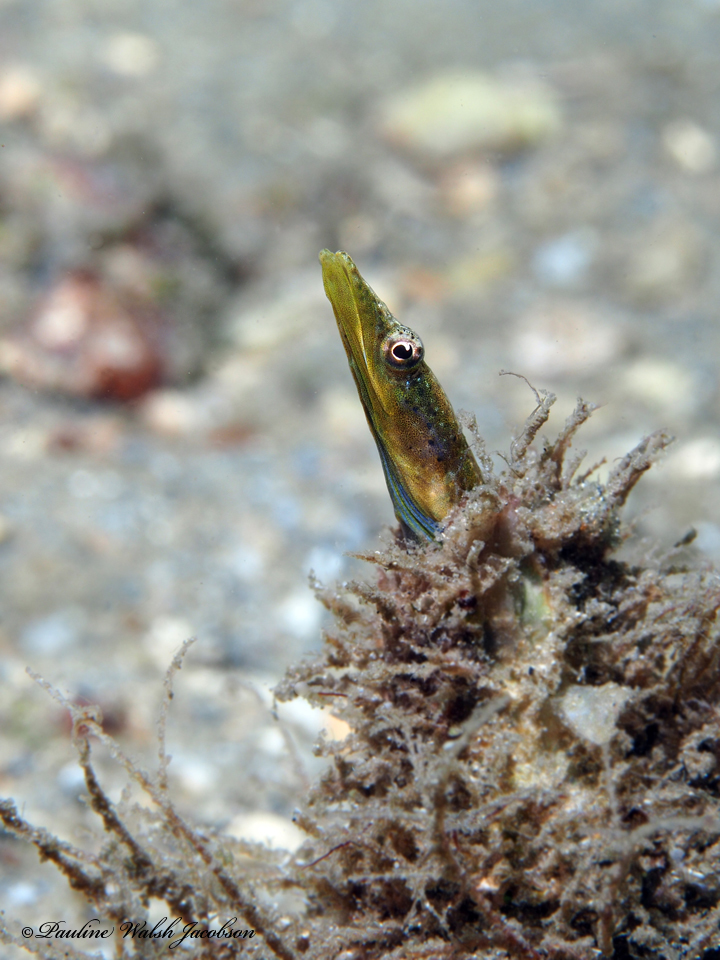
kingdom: Animalia
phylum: Chordata
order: Perciformes
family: Chaenopsidae
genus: Chaenopsis
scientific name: Chaenopsis ocellata
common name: Bluethroat pikeblenny
